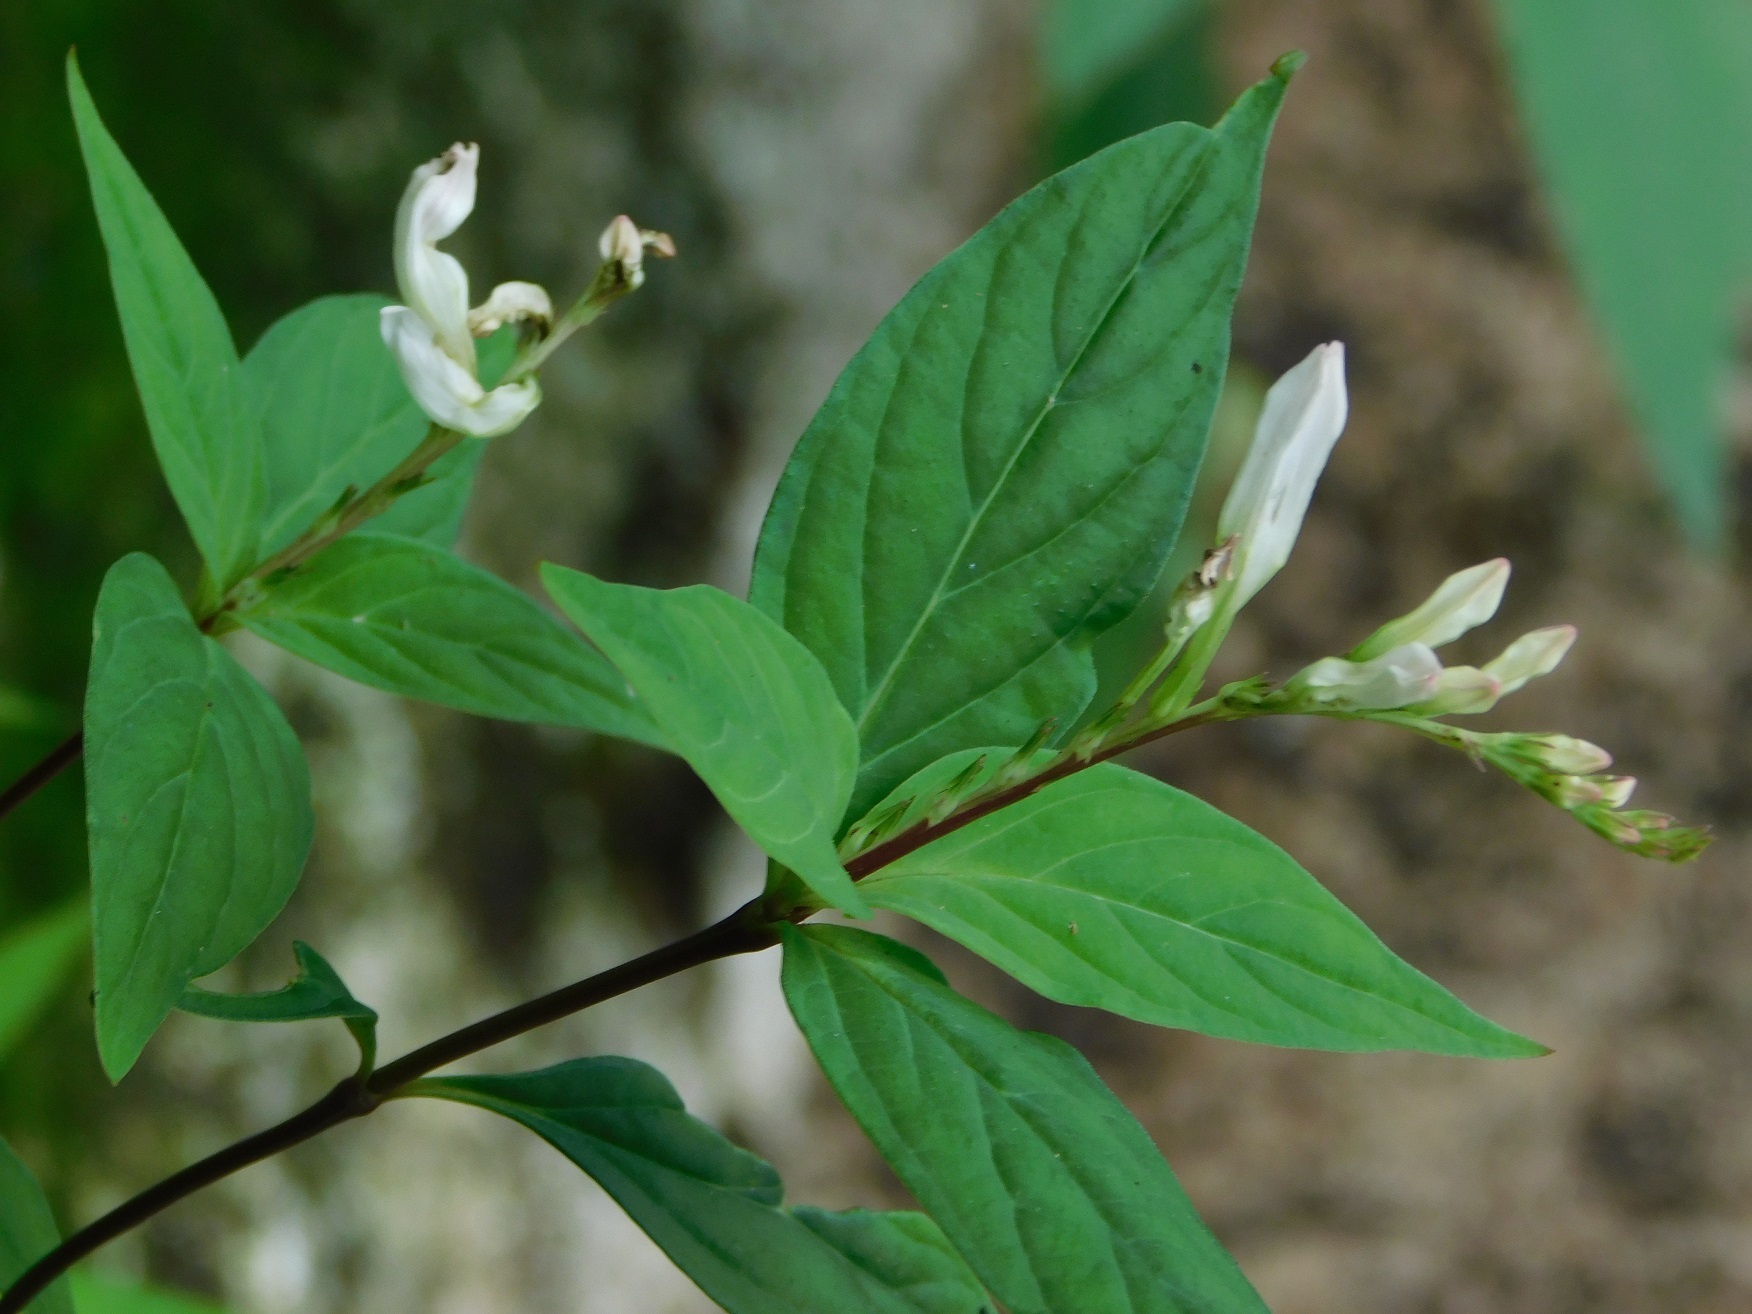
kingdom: Plantae
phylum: Tracheophyta
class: Magnoliopsida
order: Gentianales
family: Loganiaceae
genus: Spigelia
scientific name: Spigelia humboldtiana
